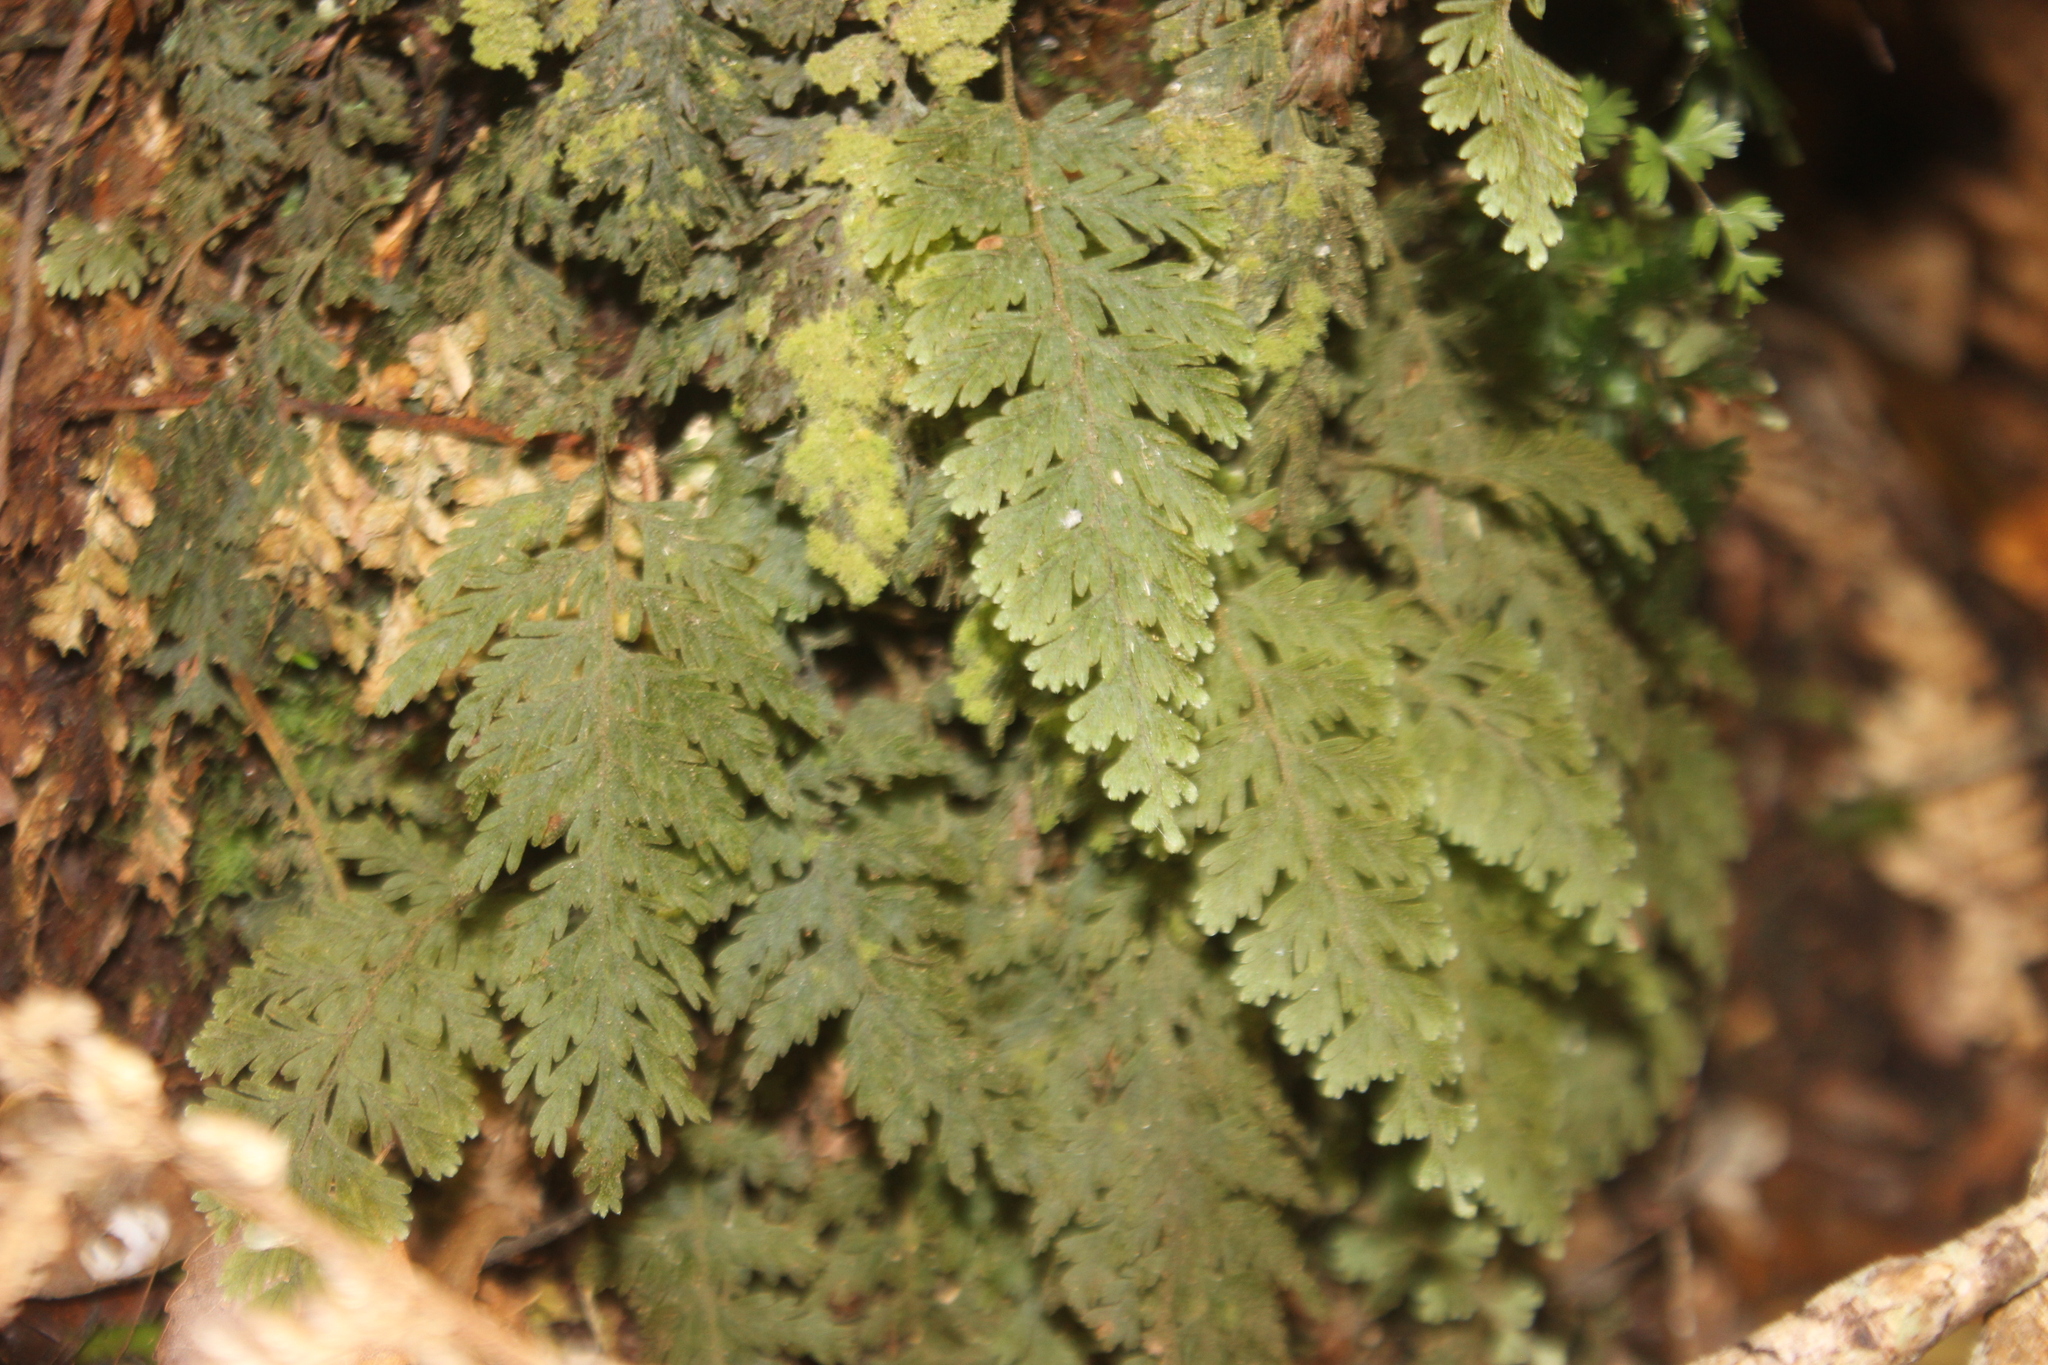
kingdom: Plantae
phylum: Tracheophyta
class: Polypodiopsida
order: Hymenophyllales
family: Hymenophyllaceae
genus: Hymenophyllum
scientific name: Hymenophyllum frankliniae
